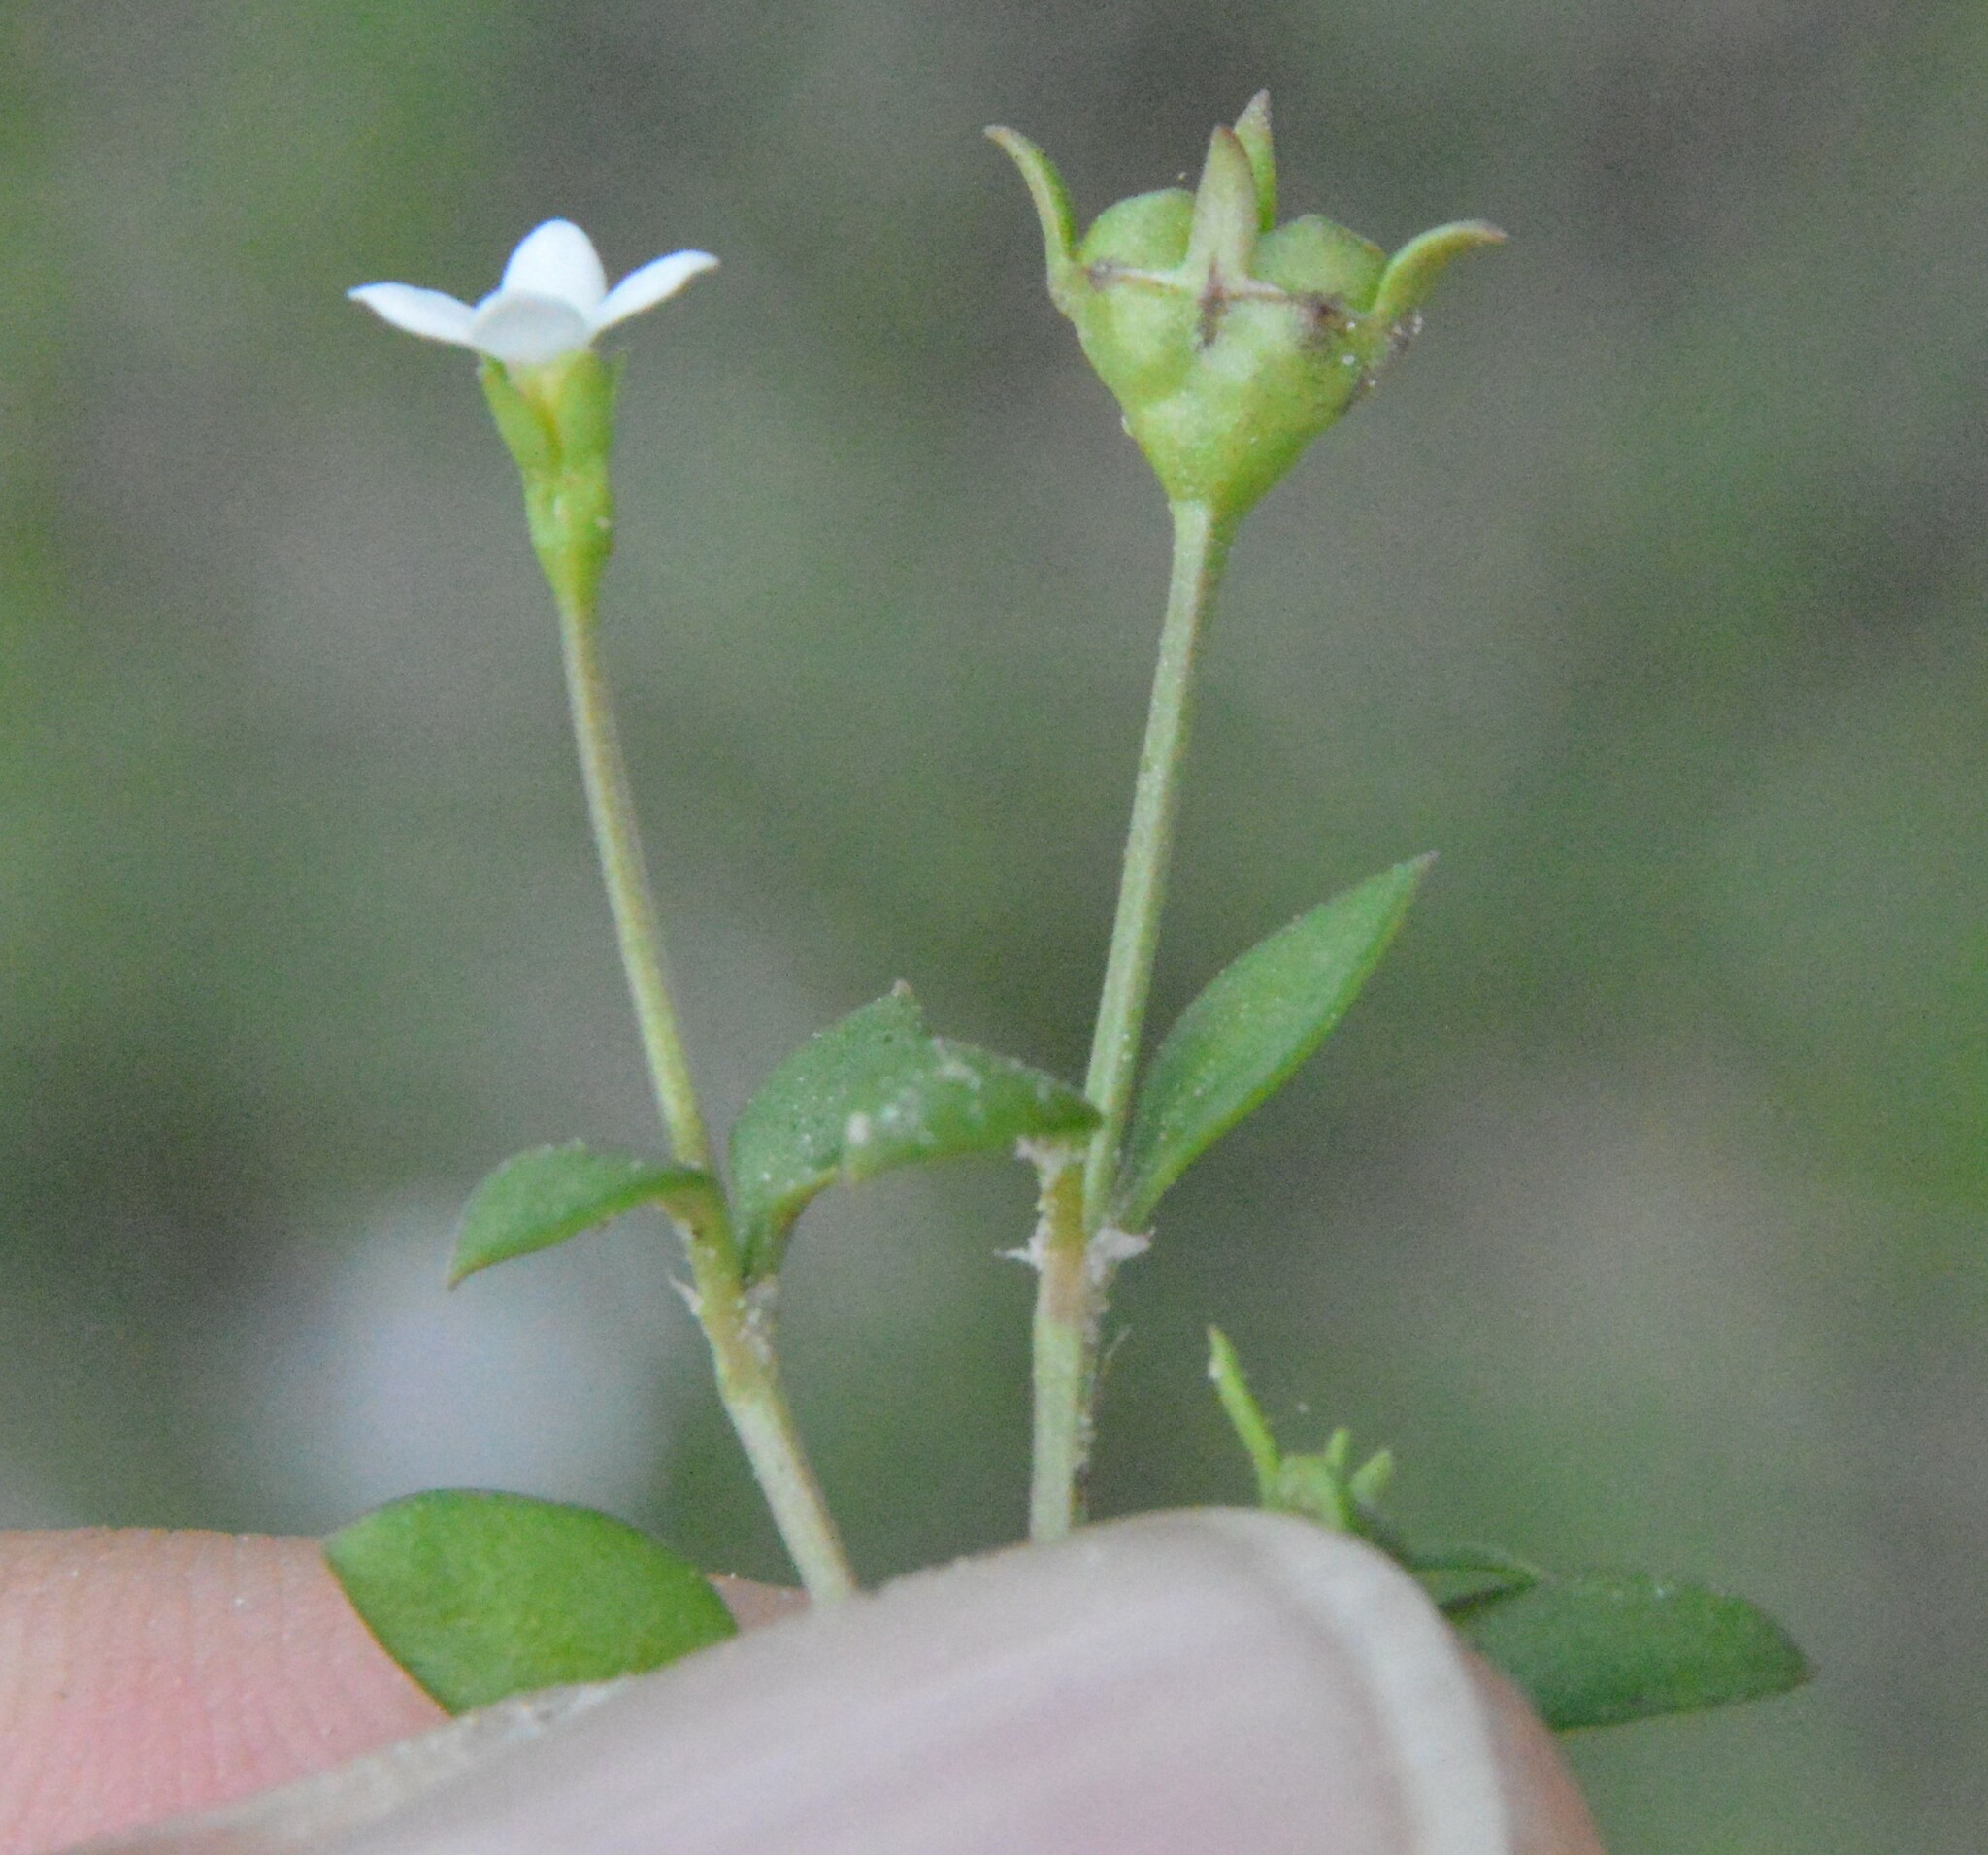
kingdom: Plantae
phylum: Tracheophyta
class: Magnoliopsida
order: Gentianales
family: Rubiaceae
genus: Houstonia
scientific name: Houstonia micrantha
